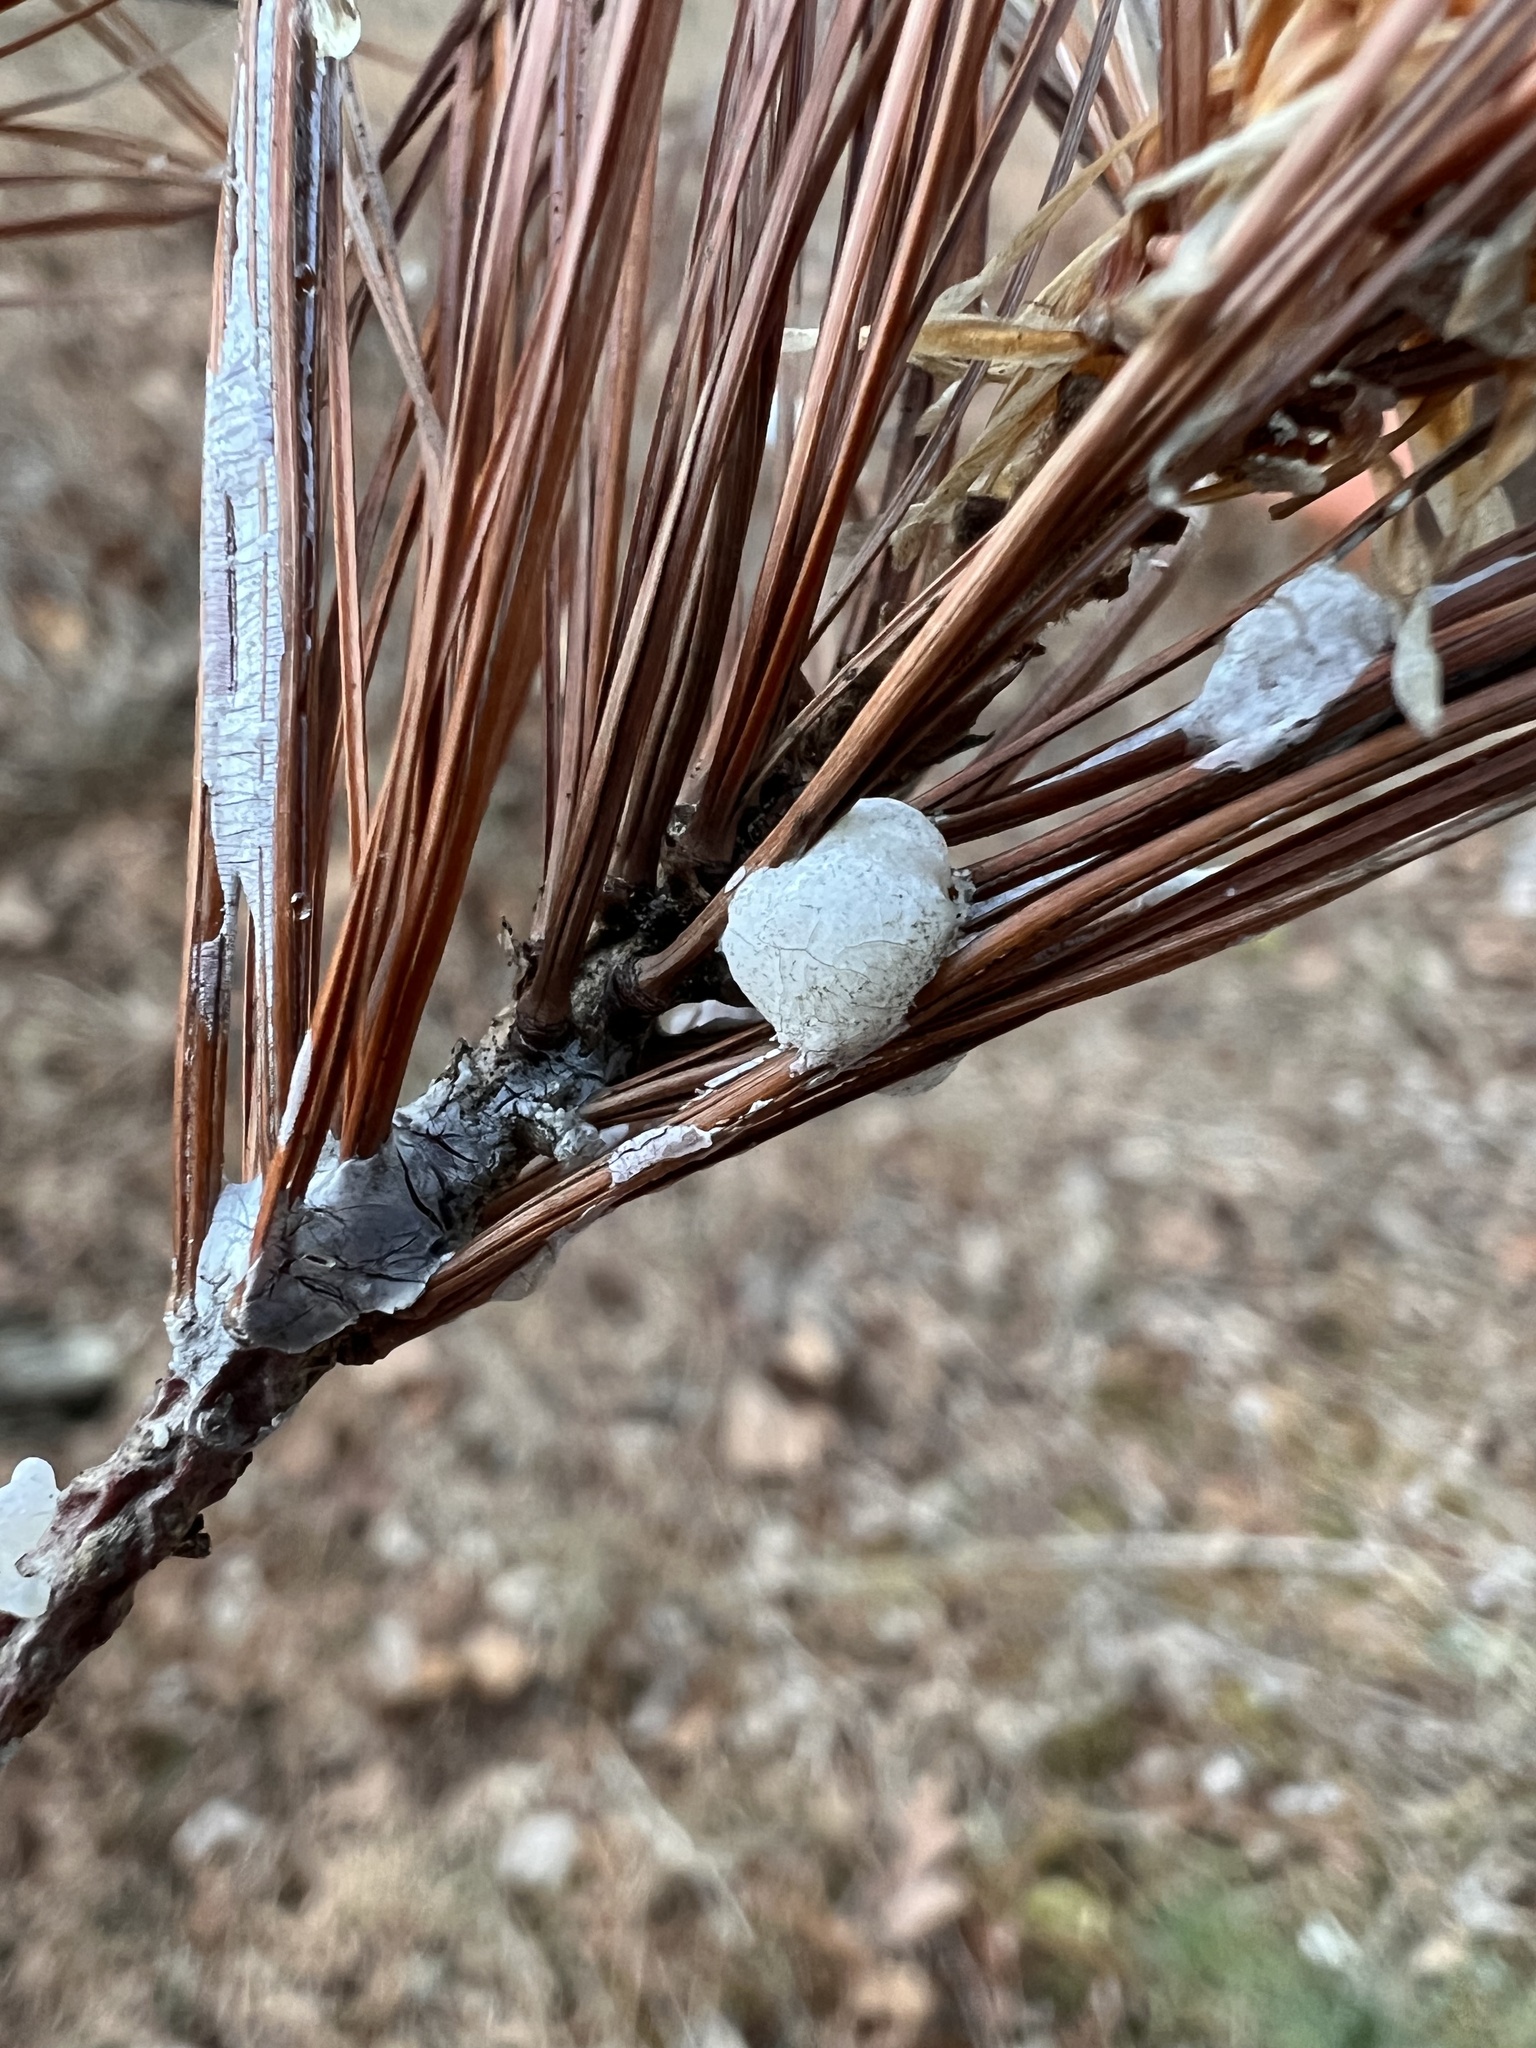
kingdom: Plantae
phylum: Tracheophyta
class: Pinopsida
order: Pinales
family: Pinaceae
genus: Pinus
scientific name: Pinus strobus
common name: Weymouth pine
